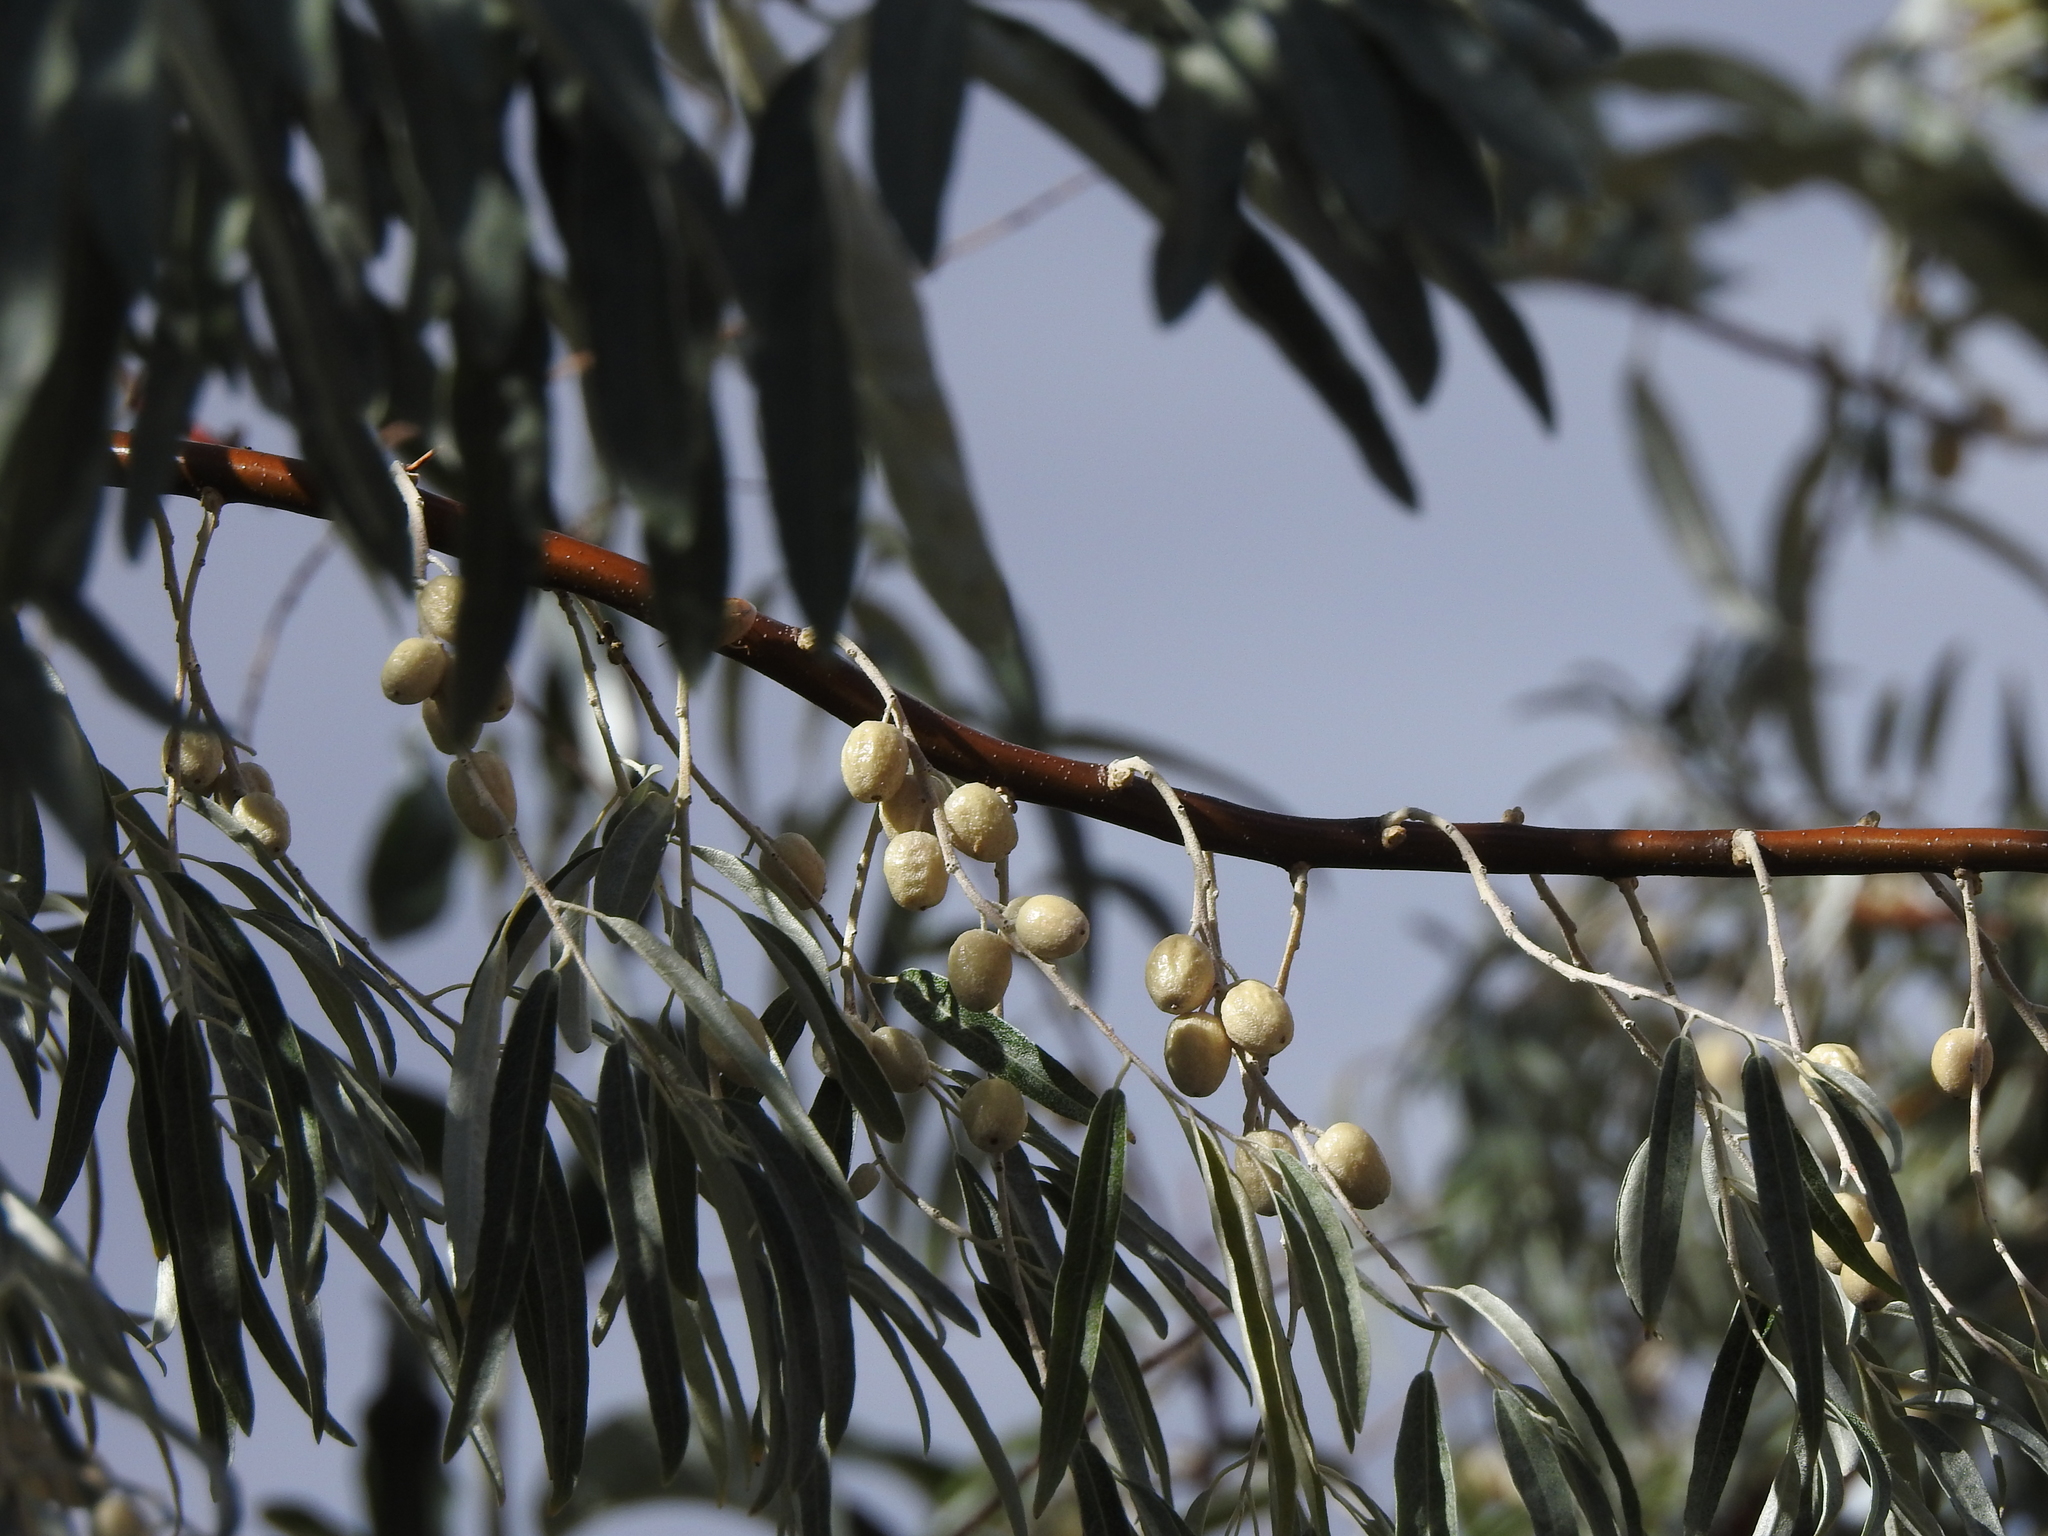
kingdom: Plantae
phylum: Tracheophyta
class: Magnoliopsida
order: Rosales
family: Elaeagnaceae
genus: Elaeagnus
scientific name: Elaeagnus angustifolia
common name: Russian olive
